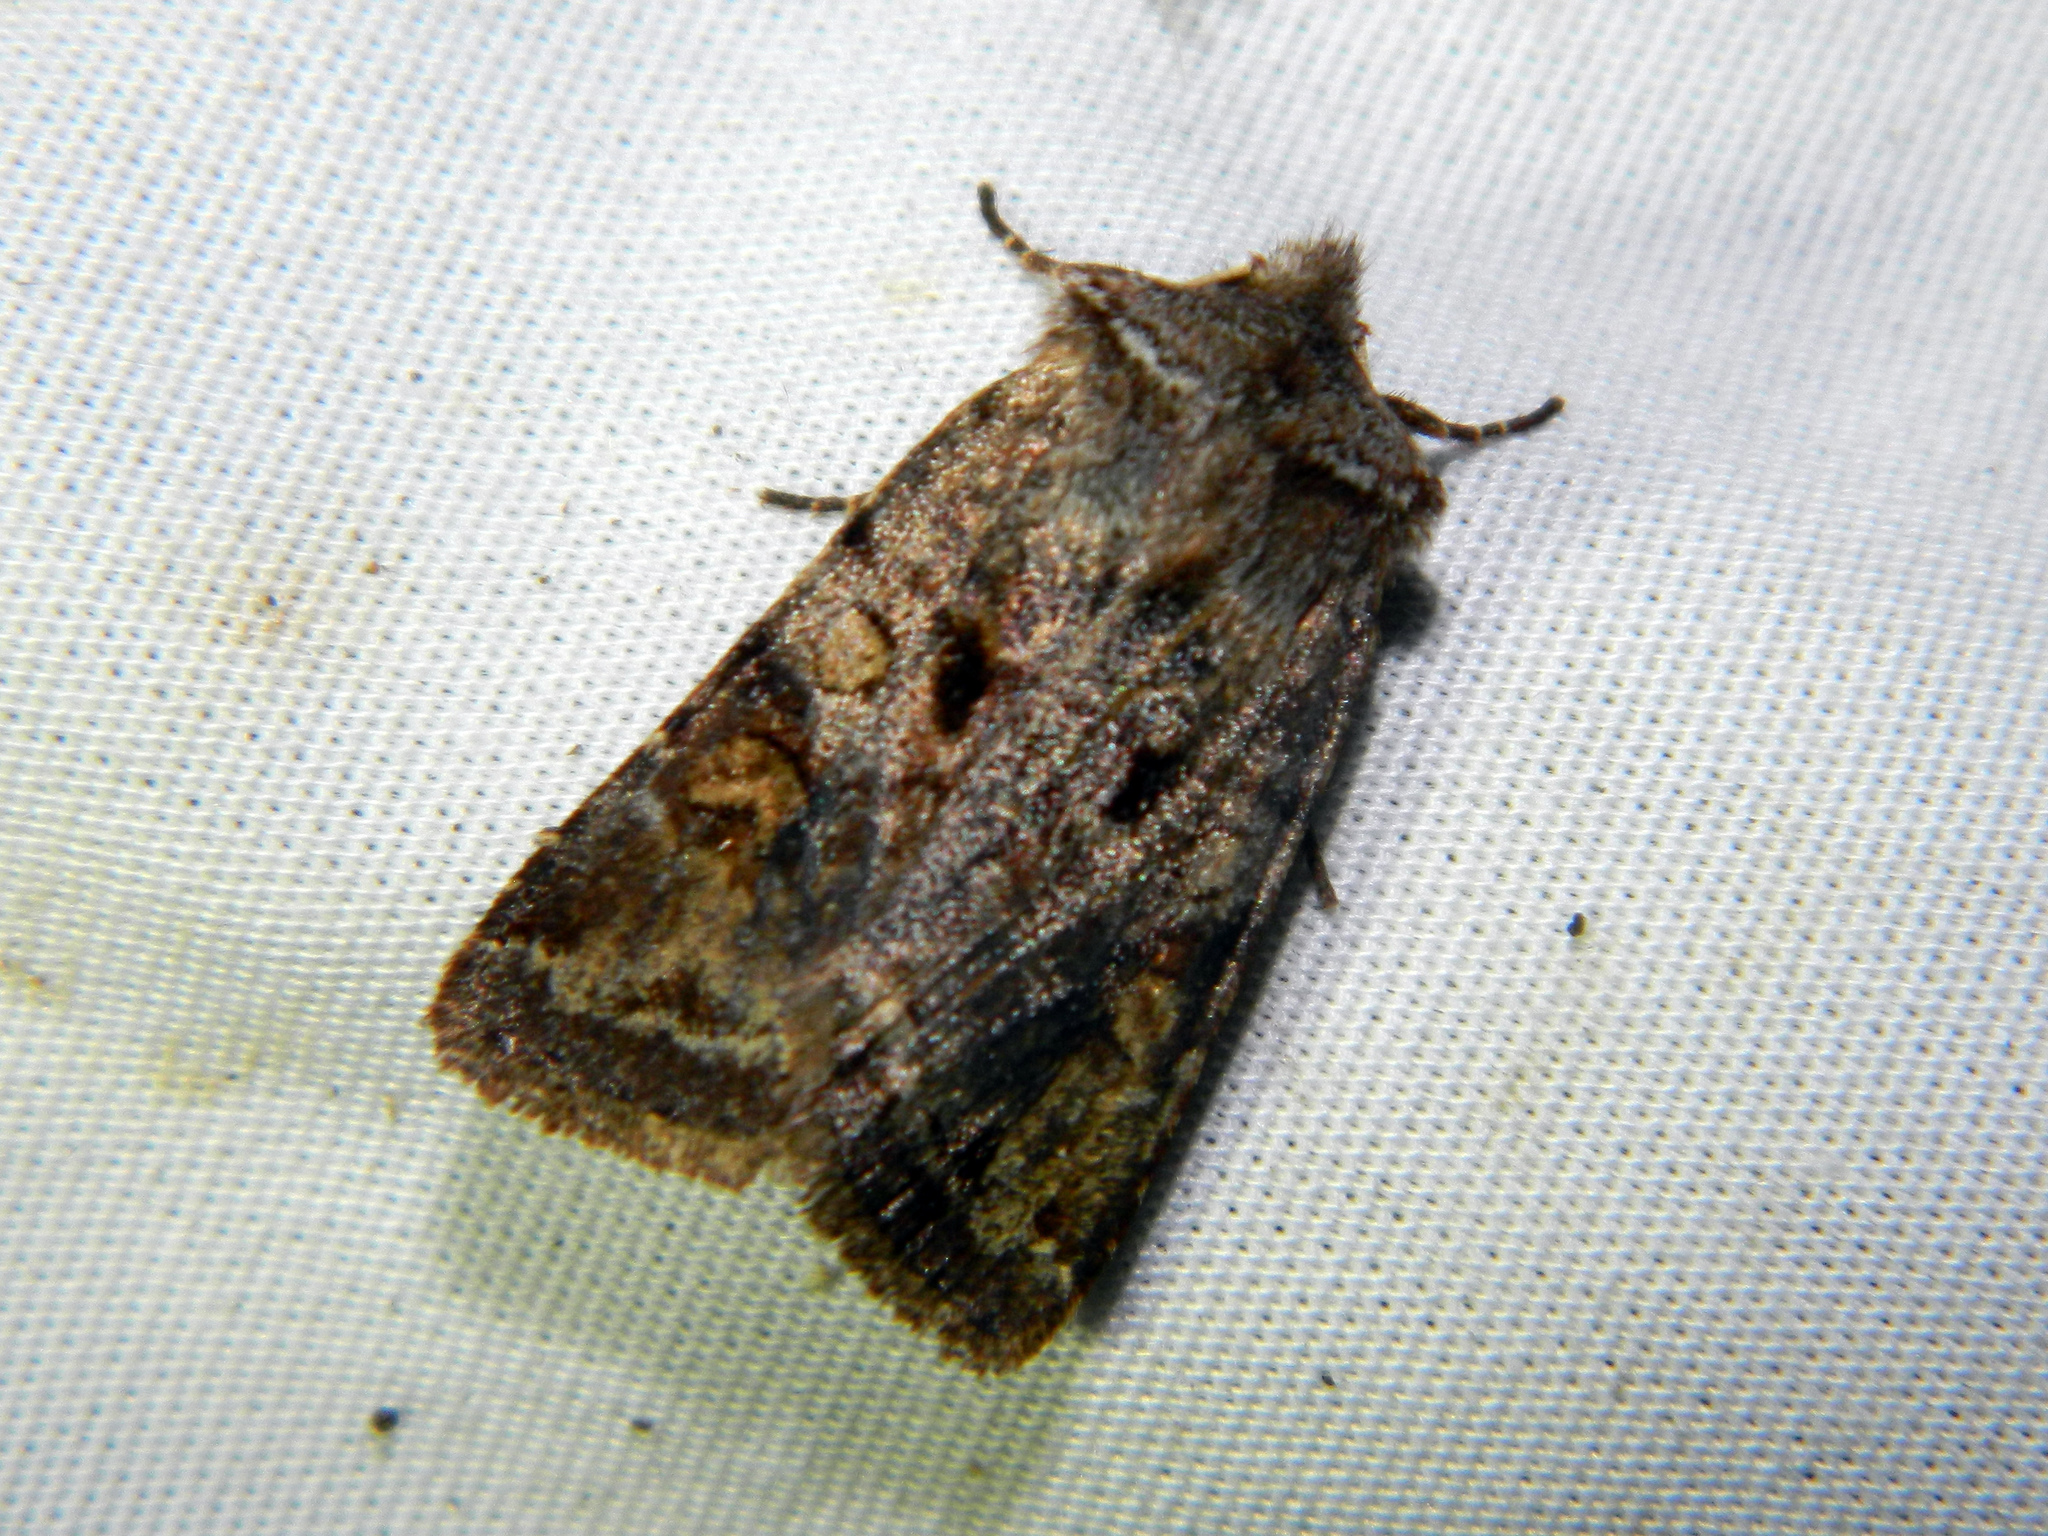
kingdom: Animalia
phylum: Arthropoda
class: Insecta
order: Lepidoptera
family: Noctuidae
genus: Cerastis
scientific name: Cerastis salicarum
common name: Willow dart
